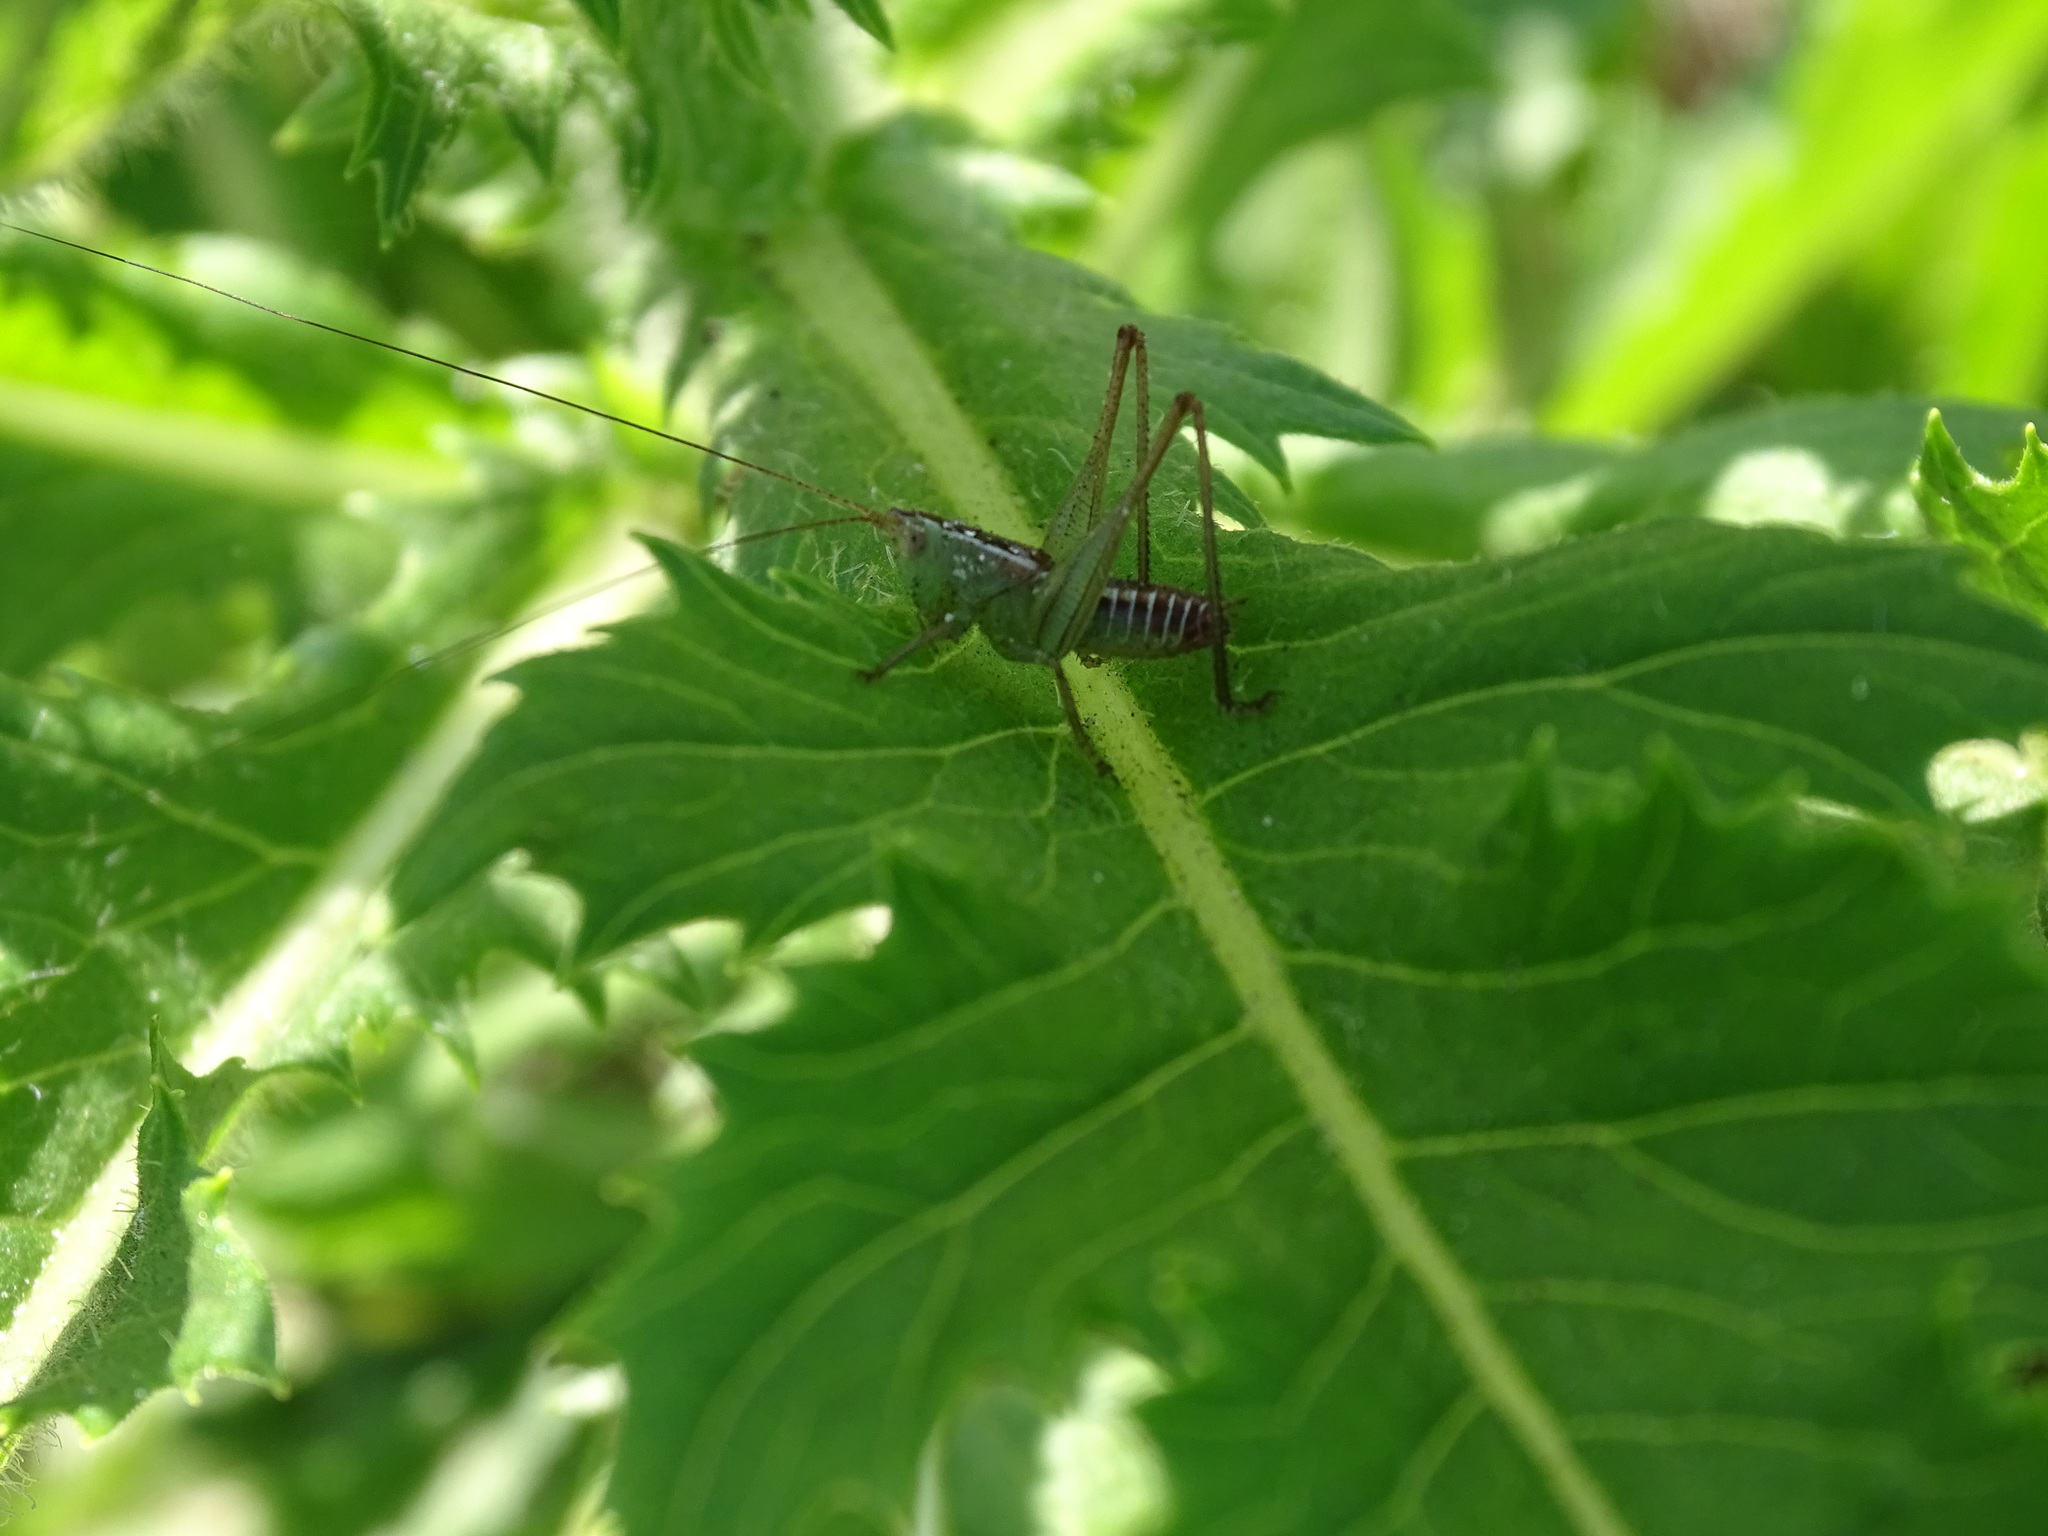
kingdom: Animalia
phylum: Arthropoda
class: Insecta
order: Orthoptera
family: Tettigoniidae
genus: Odontoxiphidium
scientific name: Odontoxiphidium apterum
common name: Wingless meadow katydid
